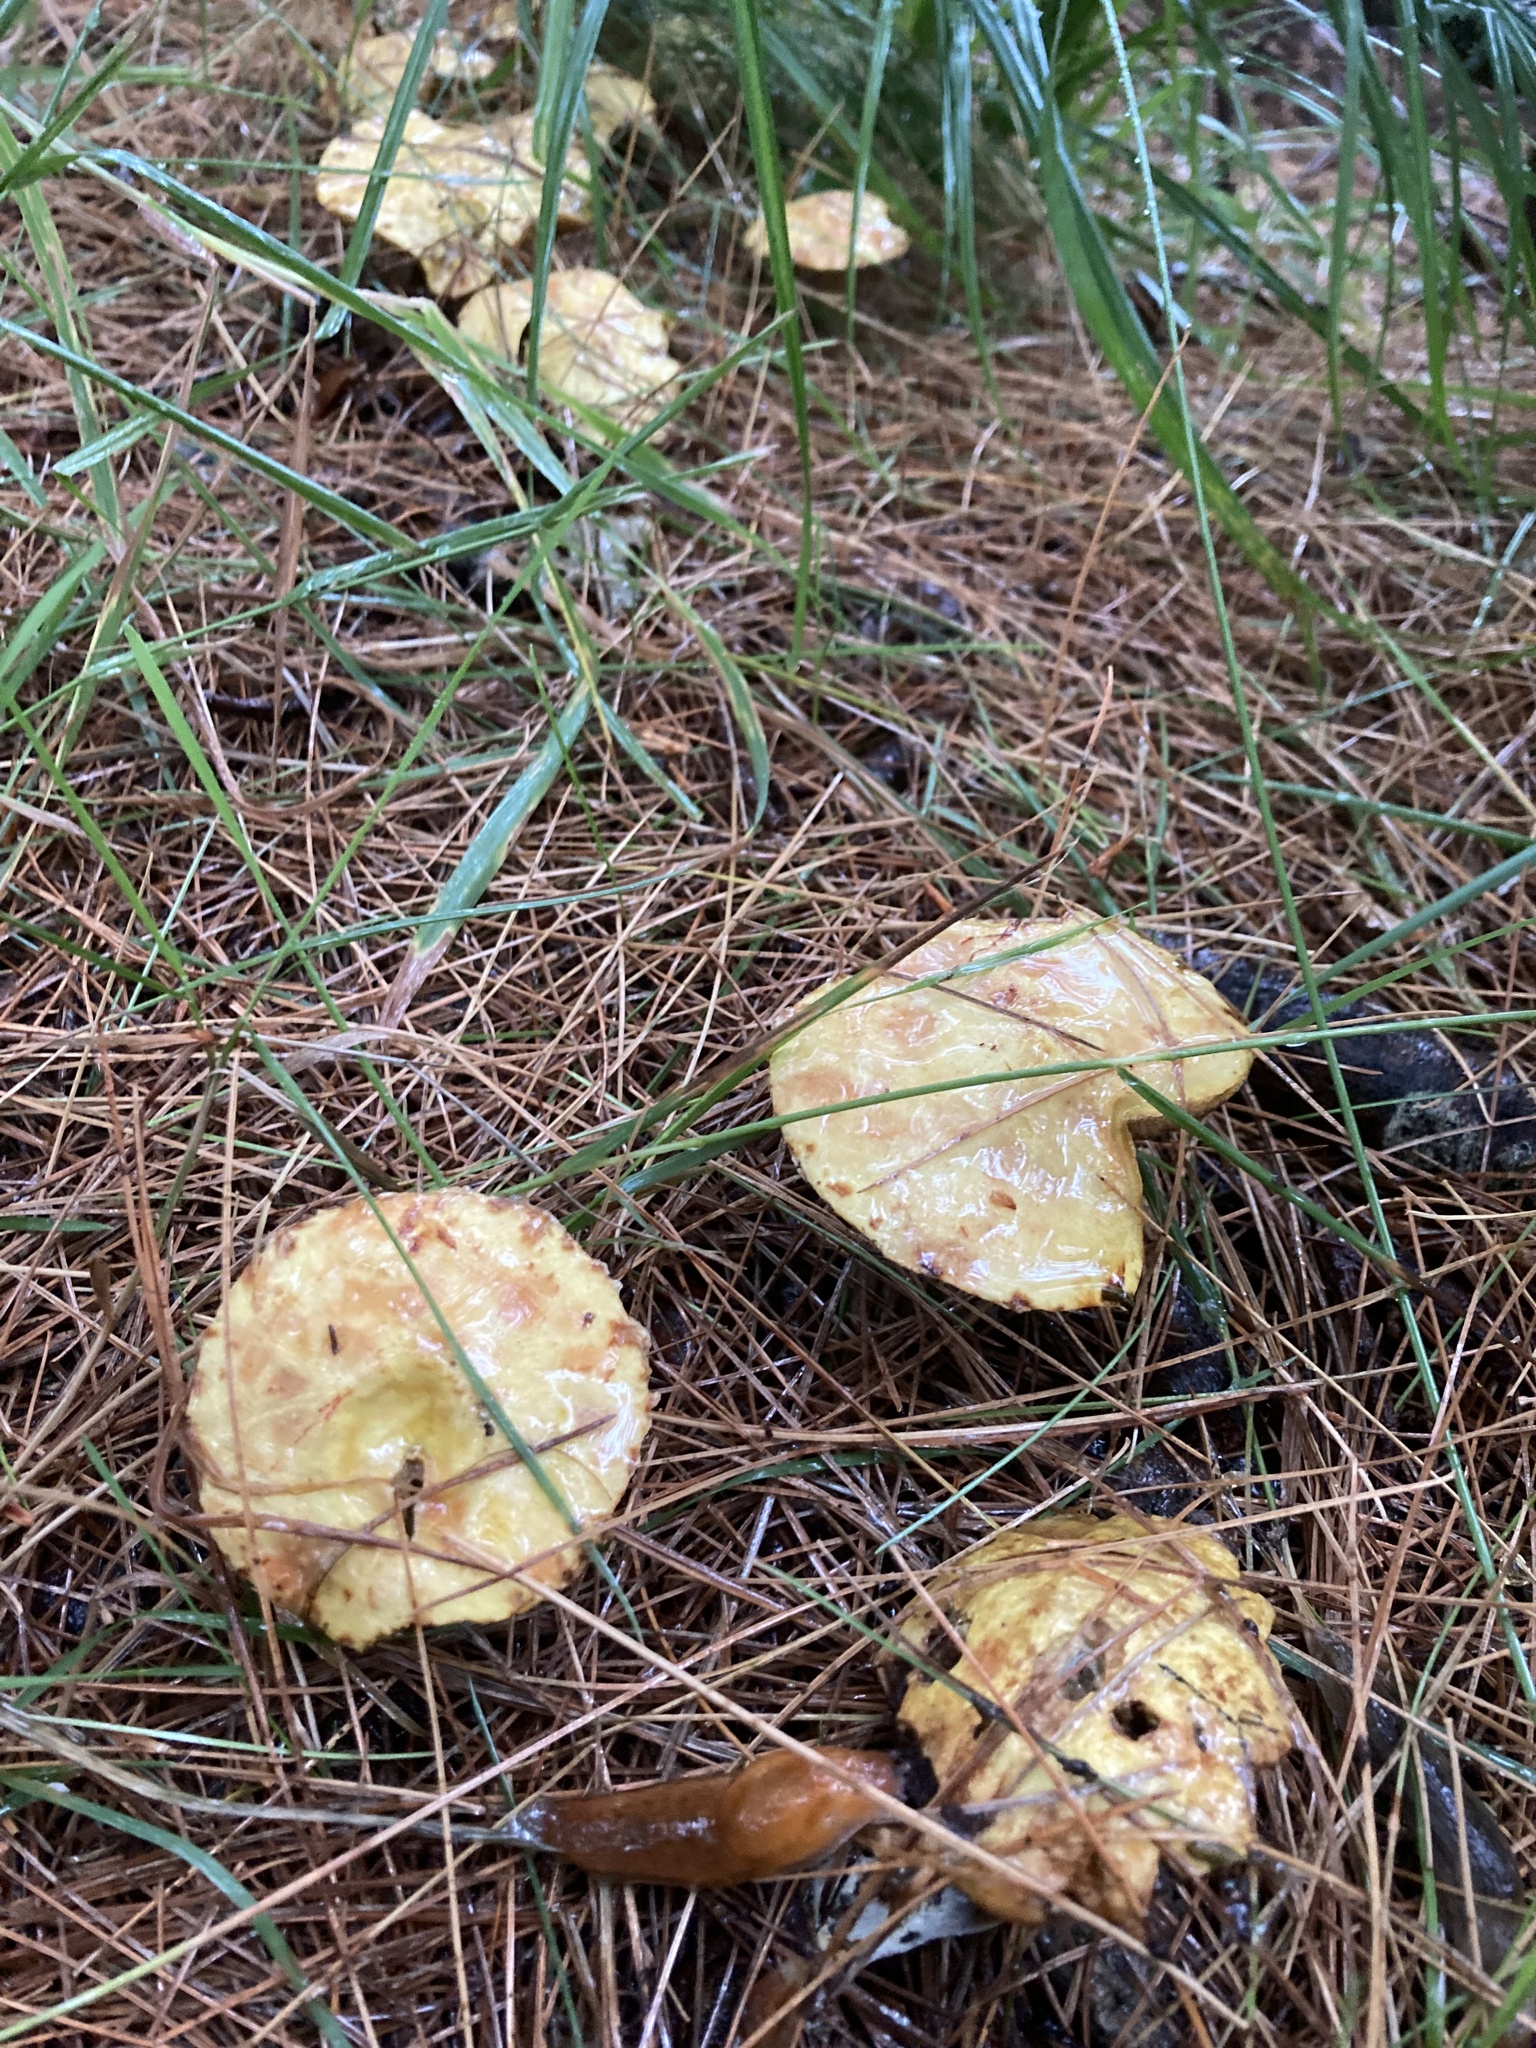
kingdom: Fungi
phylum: Basidiomycota
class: Agaricomycetes
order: Boletales
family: Suillaceae
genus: Suillus
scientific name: Suillus americanus
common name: Chicken fat mushroom
